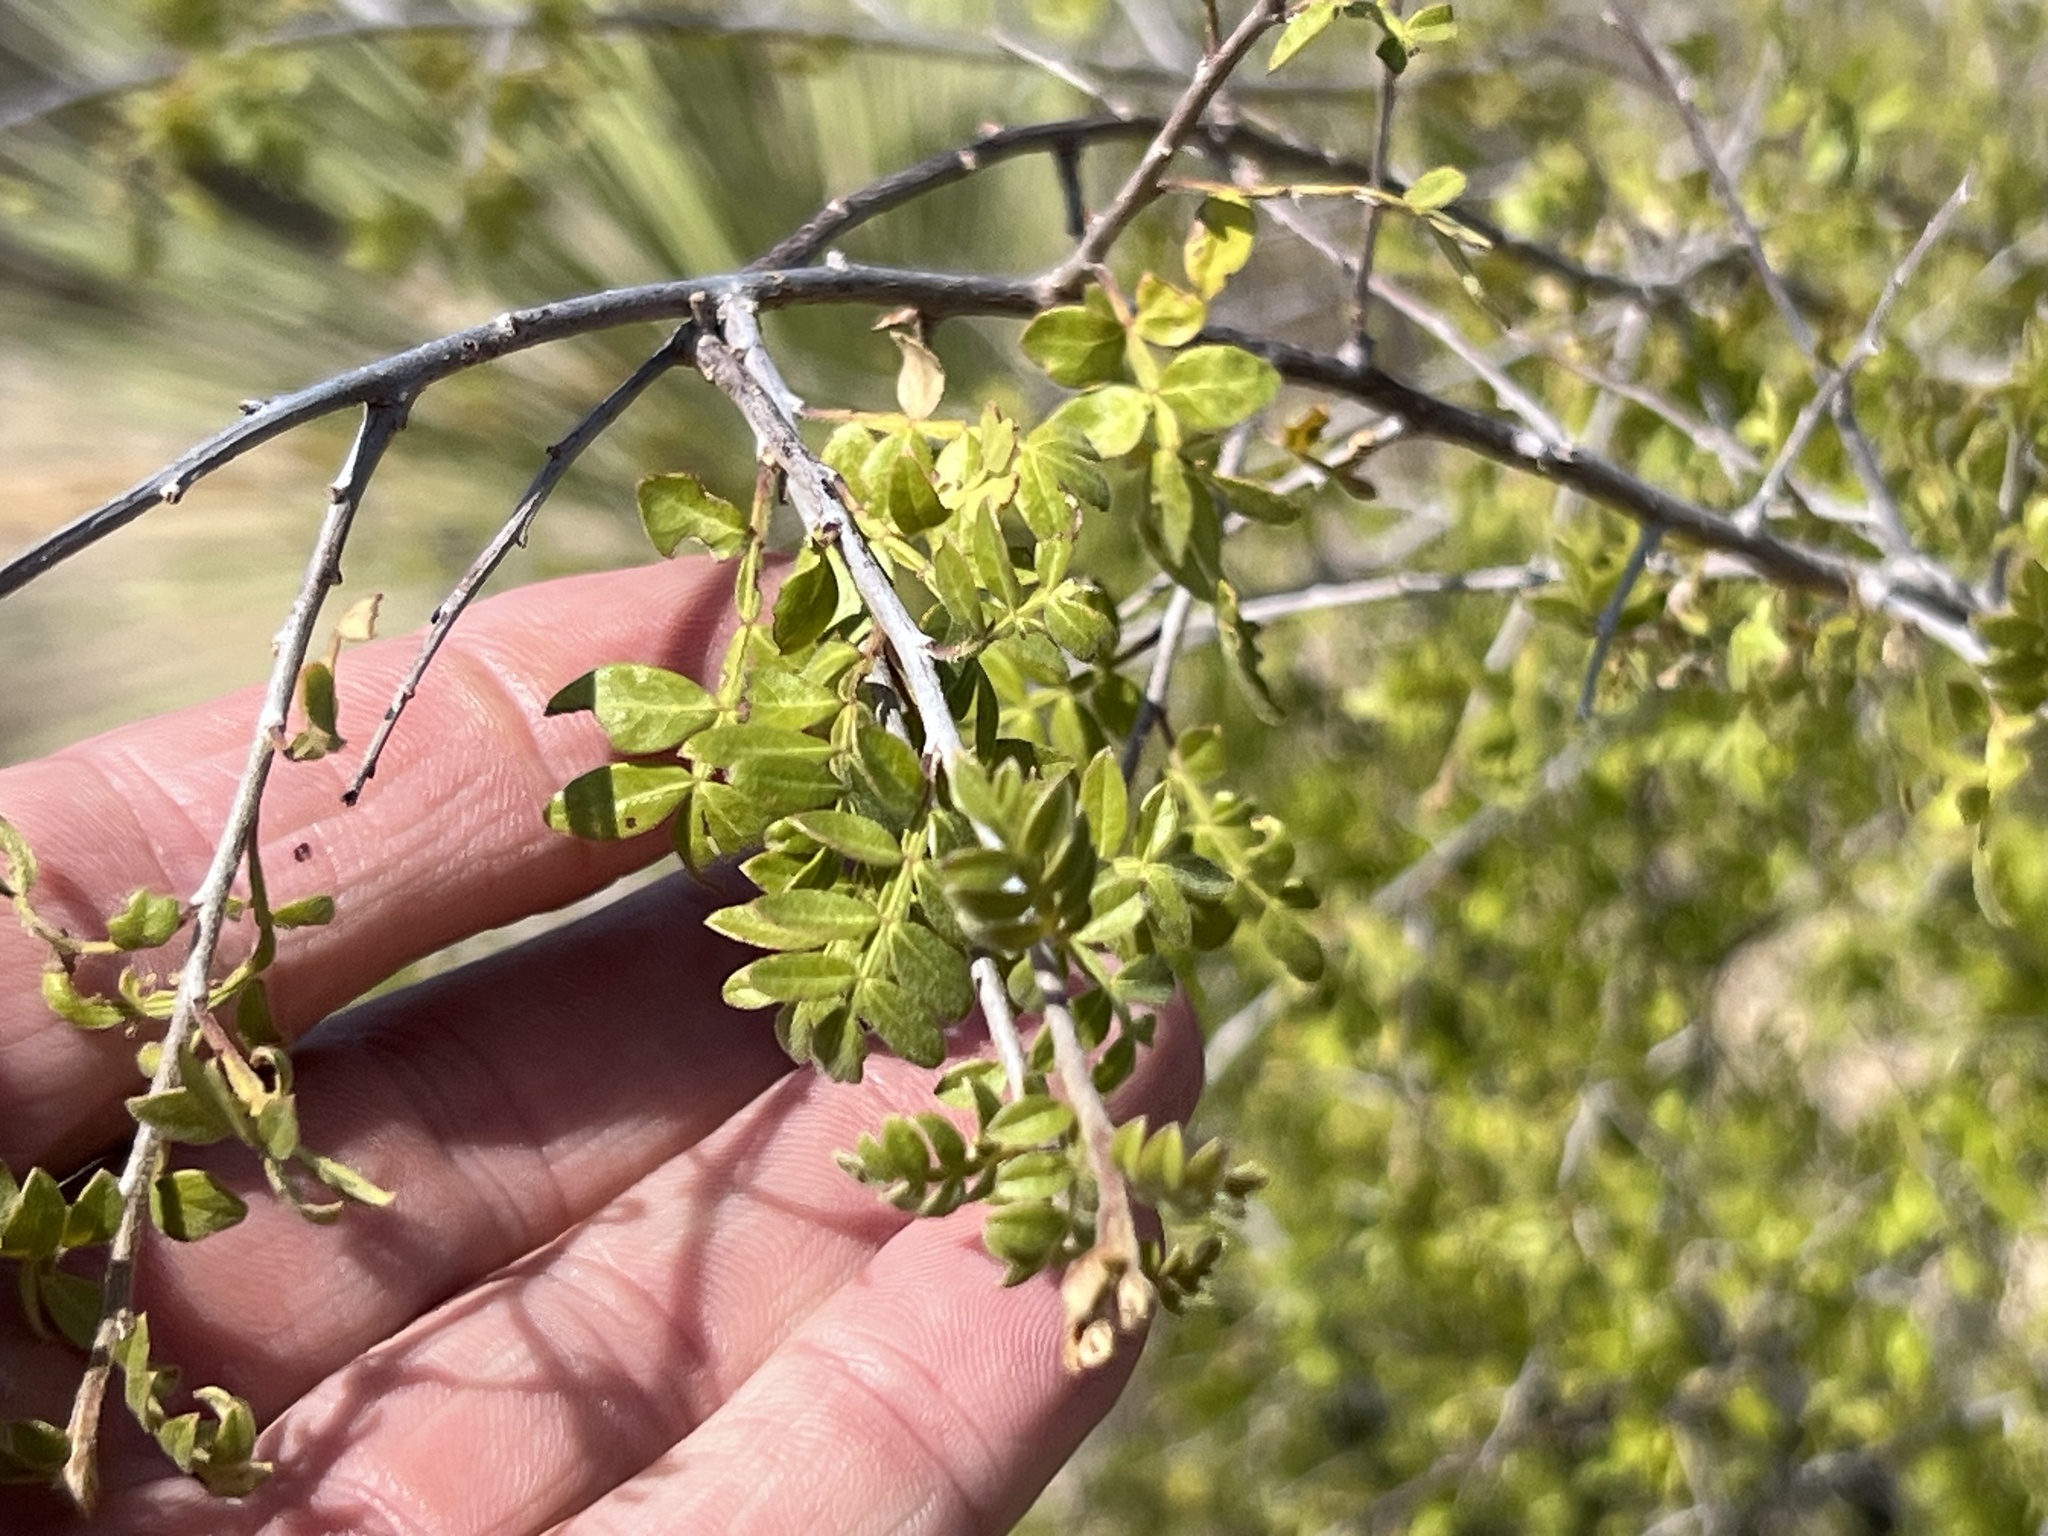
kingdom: Plantae
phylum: Tracheophyta
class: Magnoliopsida
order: Sapindales
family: Anacardiaceae
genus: Rhus
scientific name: Rhus microphylla
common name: Desert sumac
